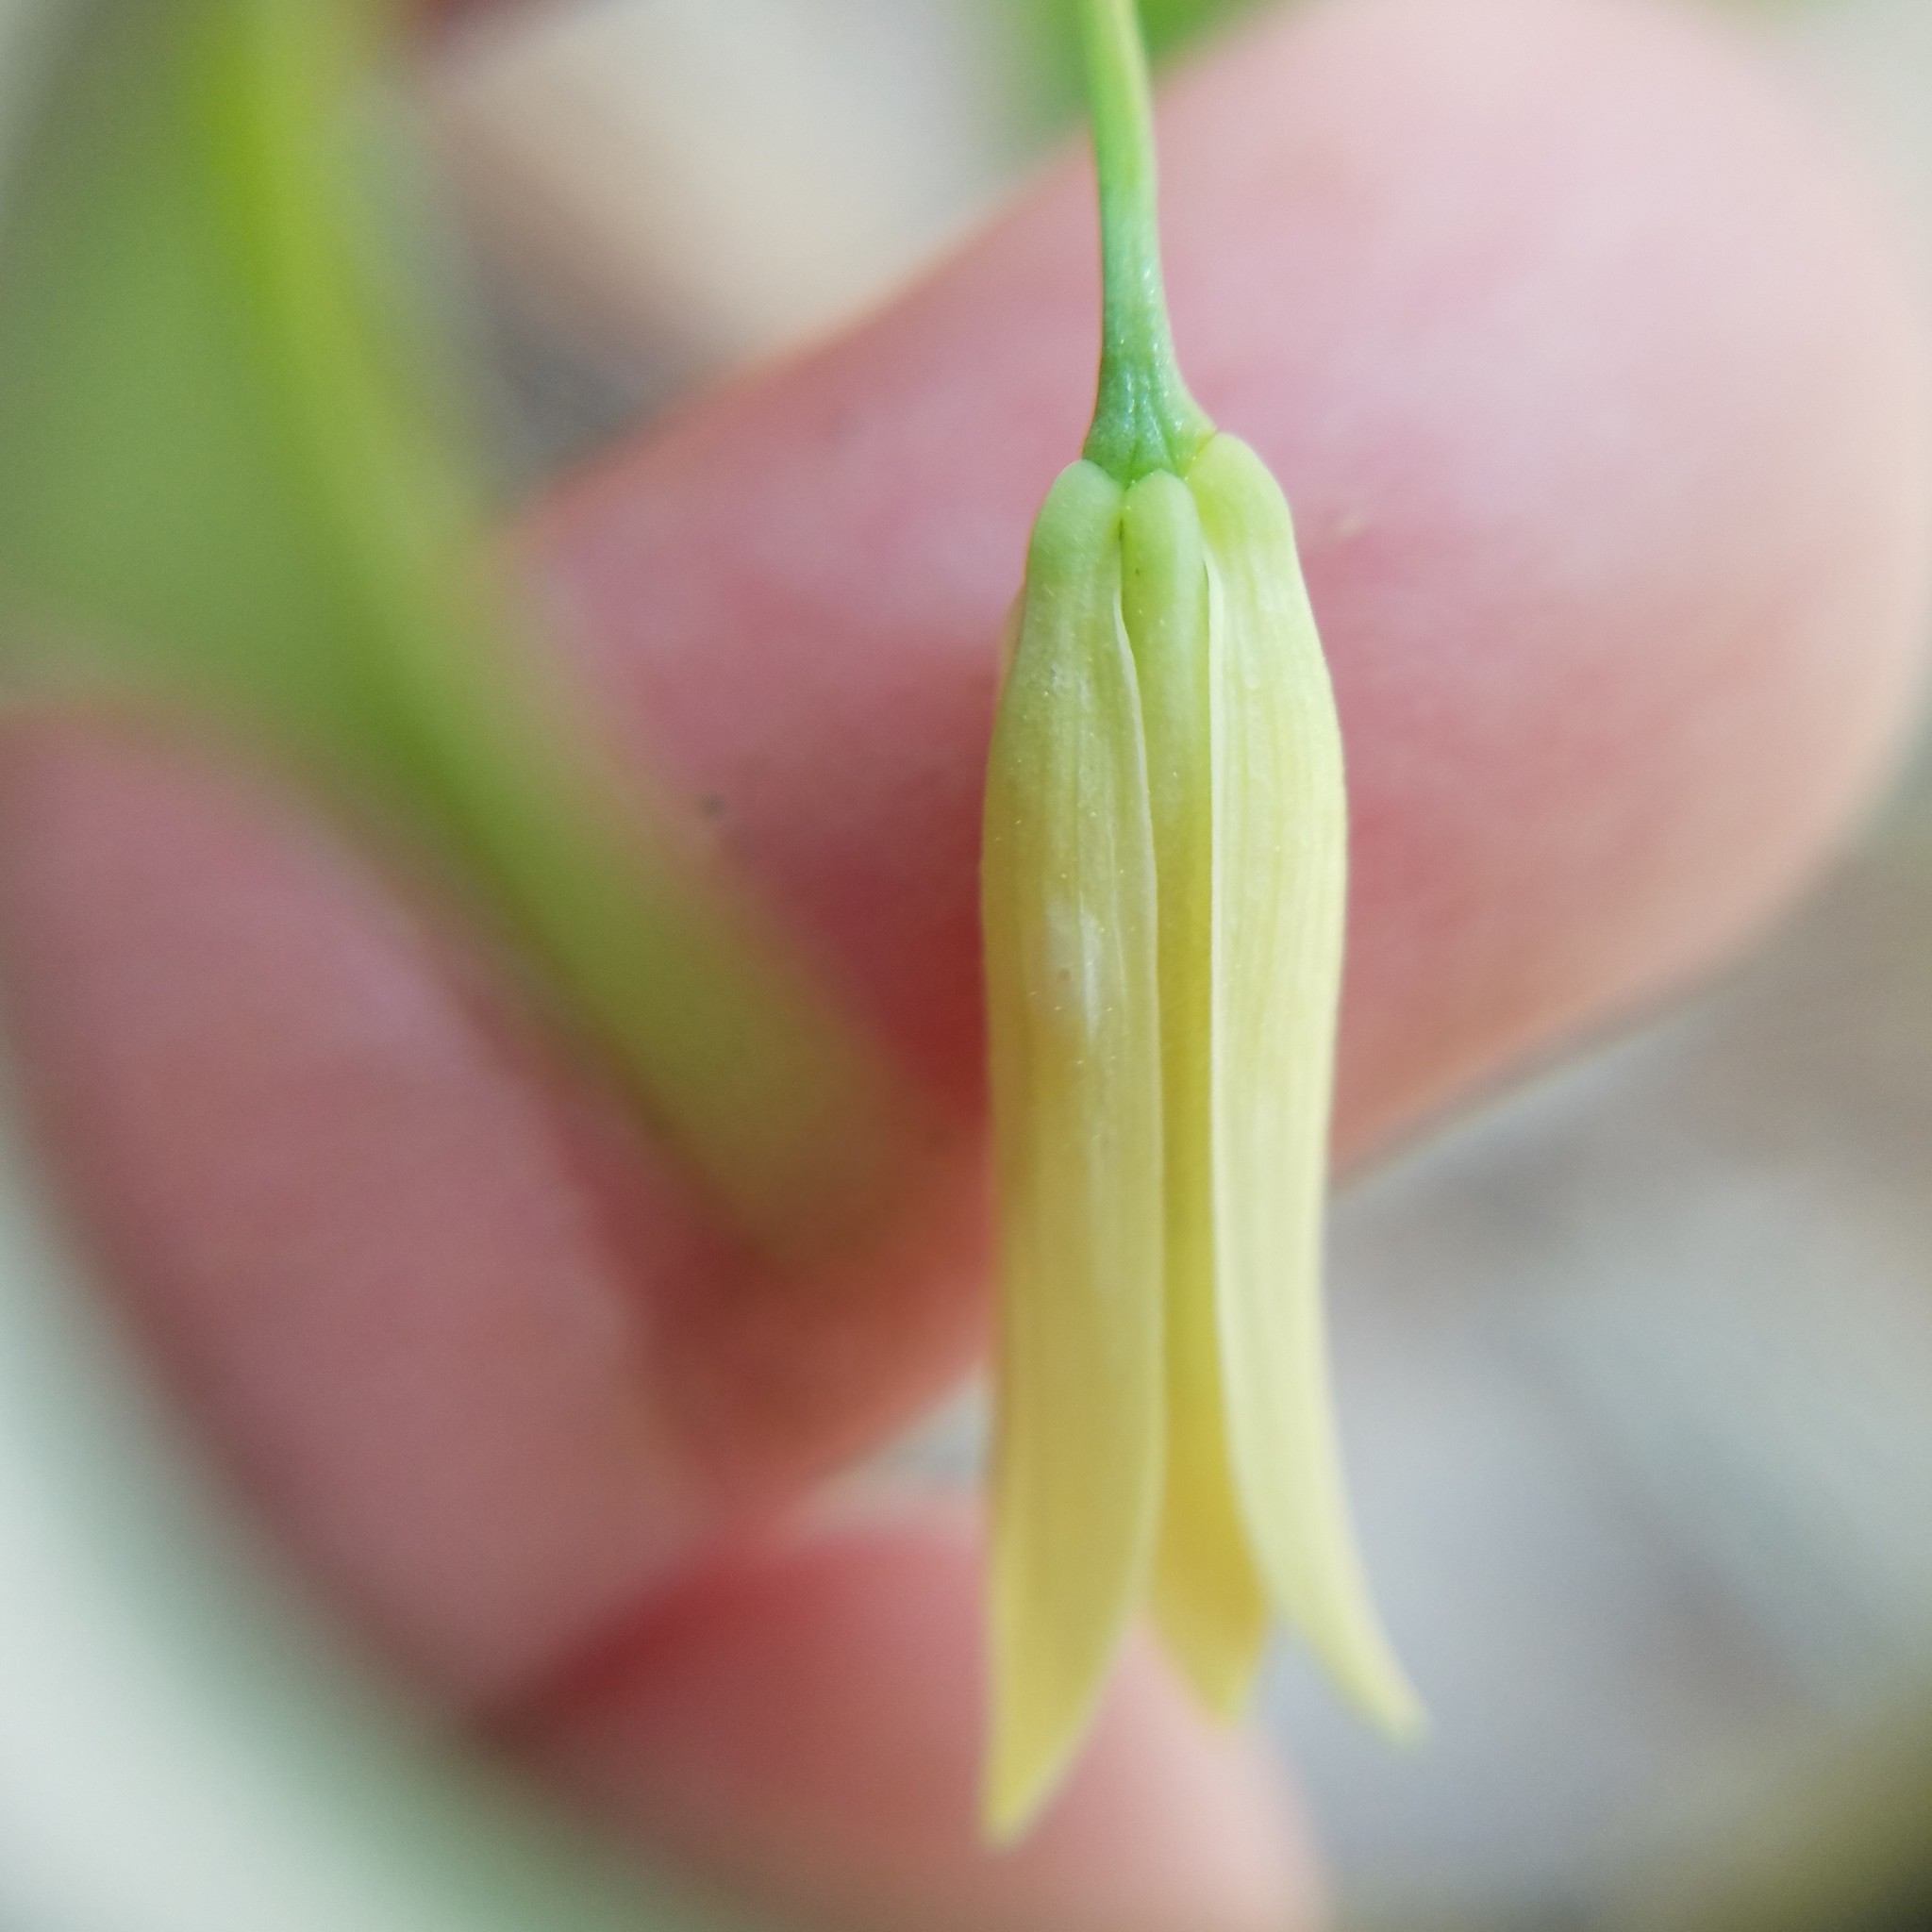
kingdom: Plantae
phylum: Tracheophyta
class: Liliopsida
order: Liliales
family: Colchicaceae
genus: Uvularia
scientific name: Uvularia puberula
